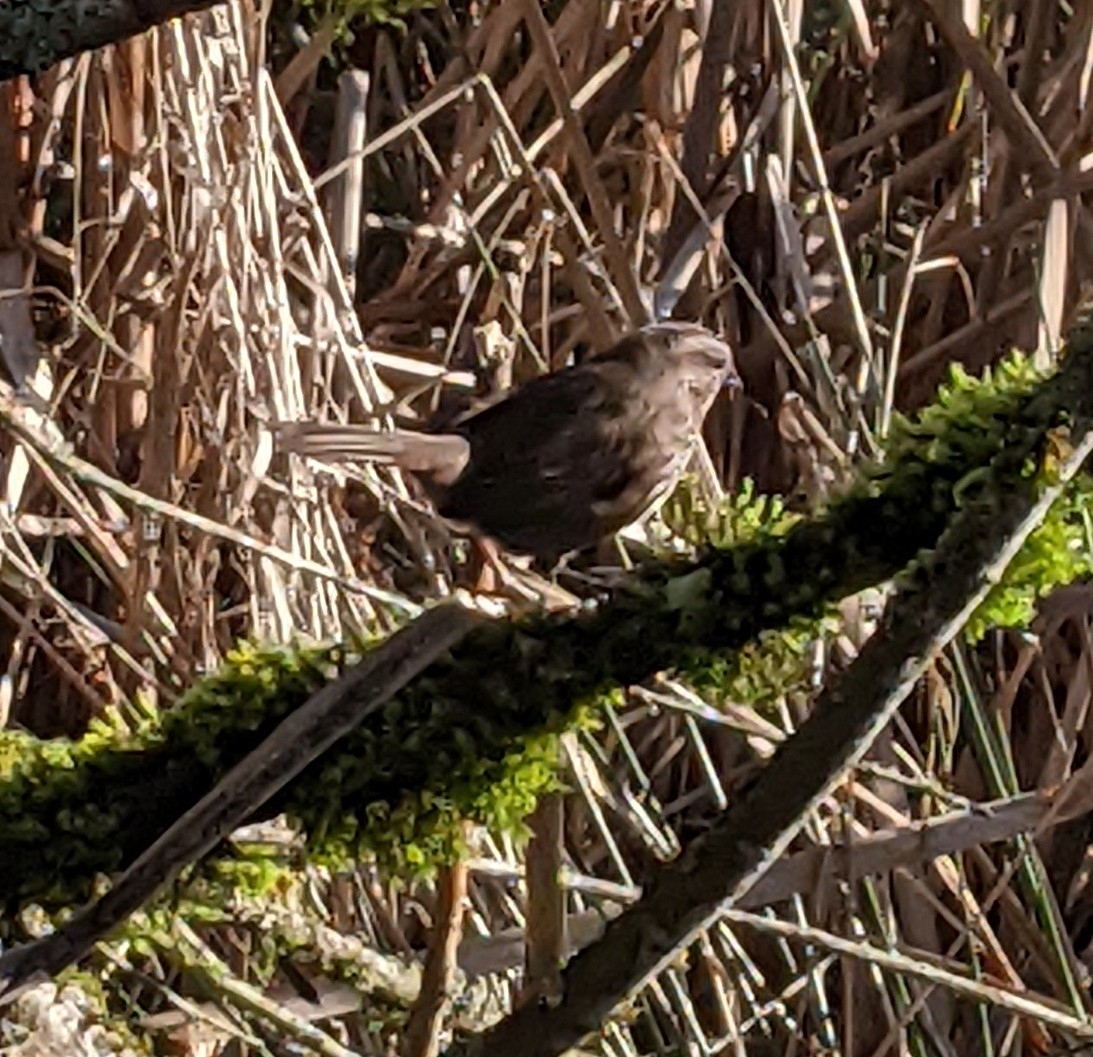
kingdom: Animalia
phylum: Chordata
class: Aves
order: Passeriformes
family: Passerellidae
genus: Melospiza
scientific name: Melospiza melodia
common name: Song sparrow
